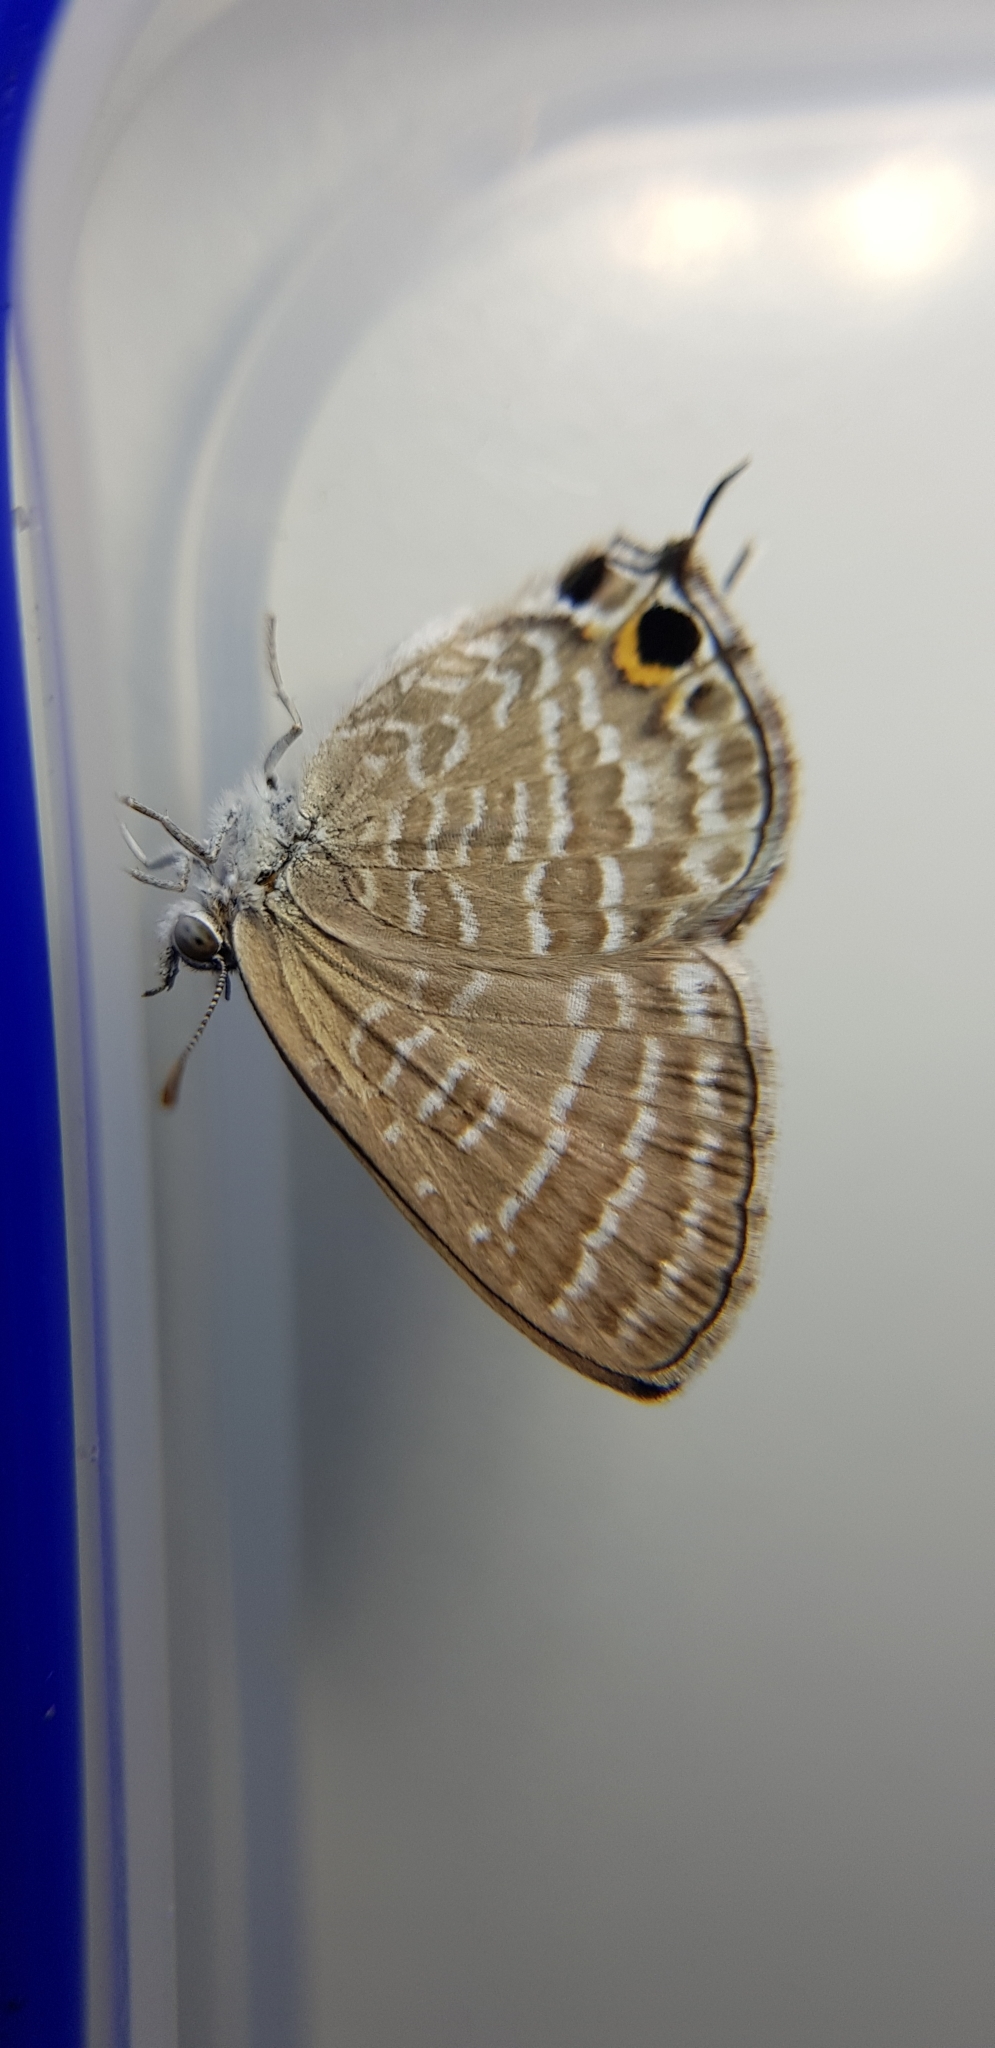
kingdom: Animalia
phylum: Arthropoda
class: Insecta
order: Lepidoptera
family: Lycaenidae
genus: Theclinesthes
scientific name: Theclinesthes onycha
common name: Cycad blue
